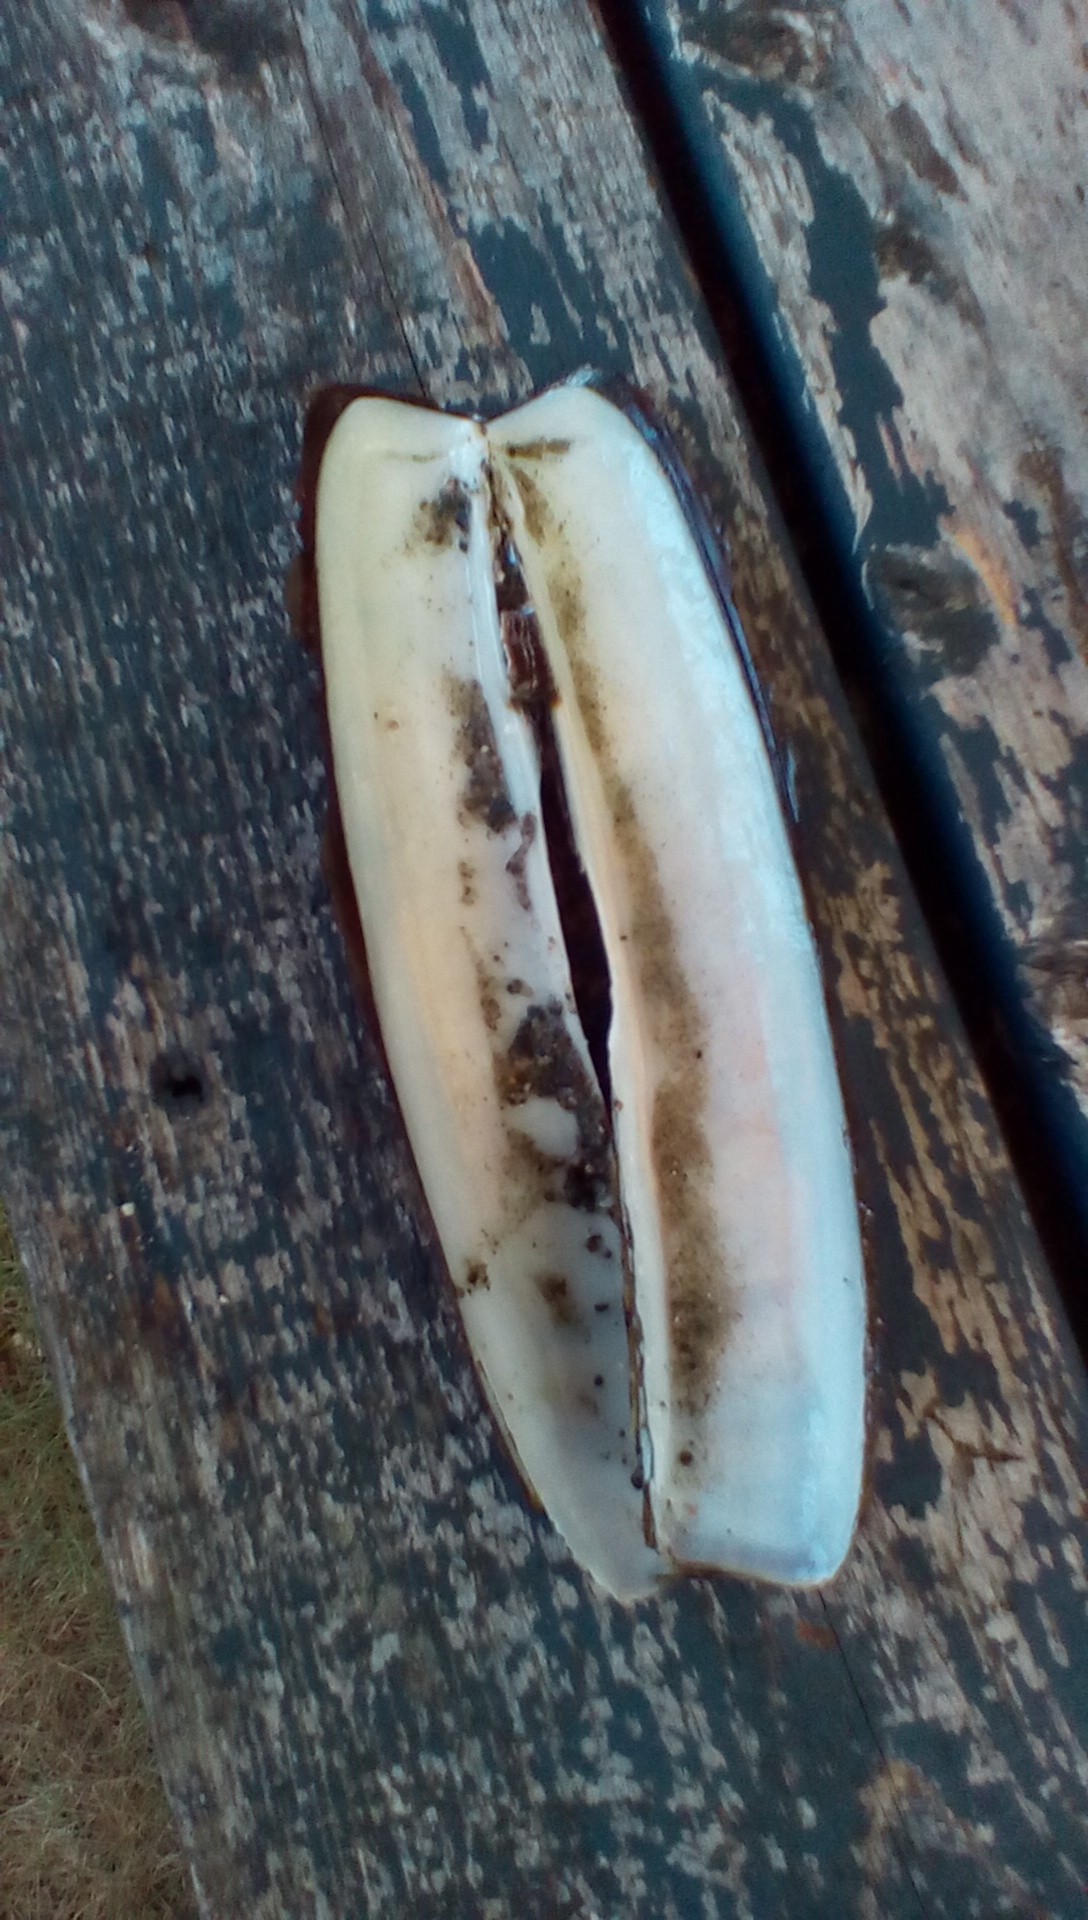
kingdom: Animalia
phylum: Mollusca
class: Bivalvia
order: Adapedonta
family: Pharidae
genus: Ensis
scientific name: Ensis leei
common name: American jack knife clam
